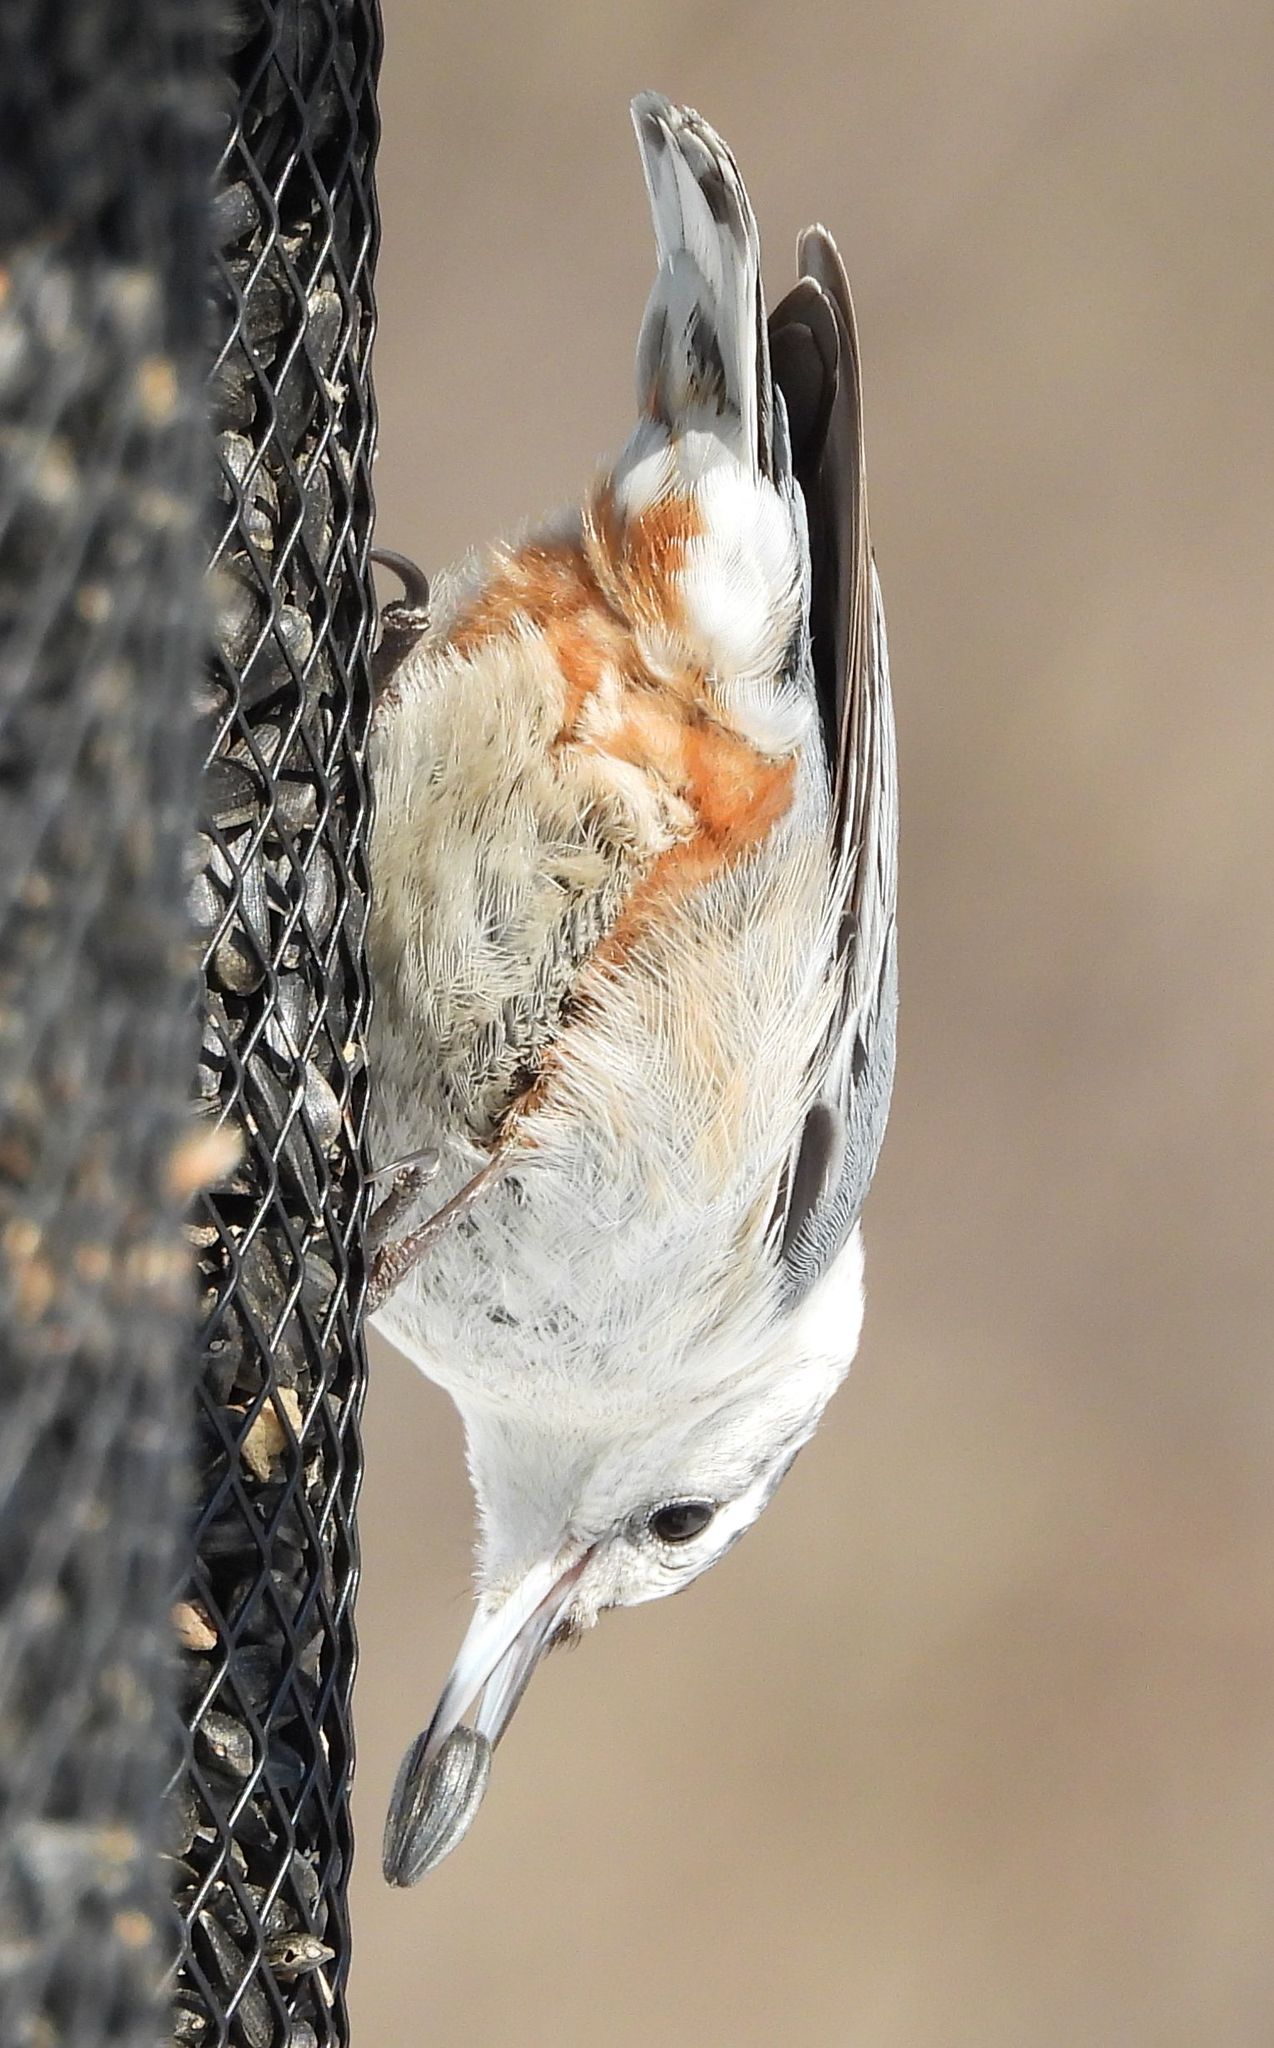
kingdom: Animalia
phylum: Chordata
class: Aves
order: Passeriformes
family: Sittidae
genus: Sitta
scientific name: Sitta carolinensis
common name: White-breasted nuthatch
